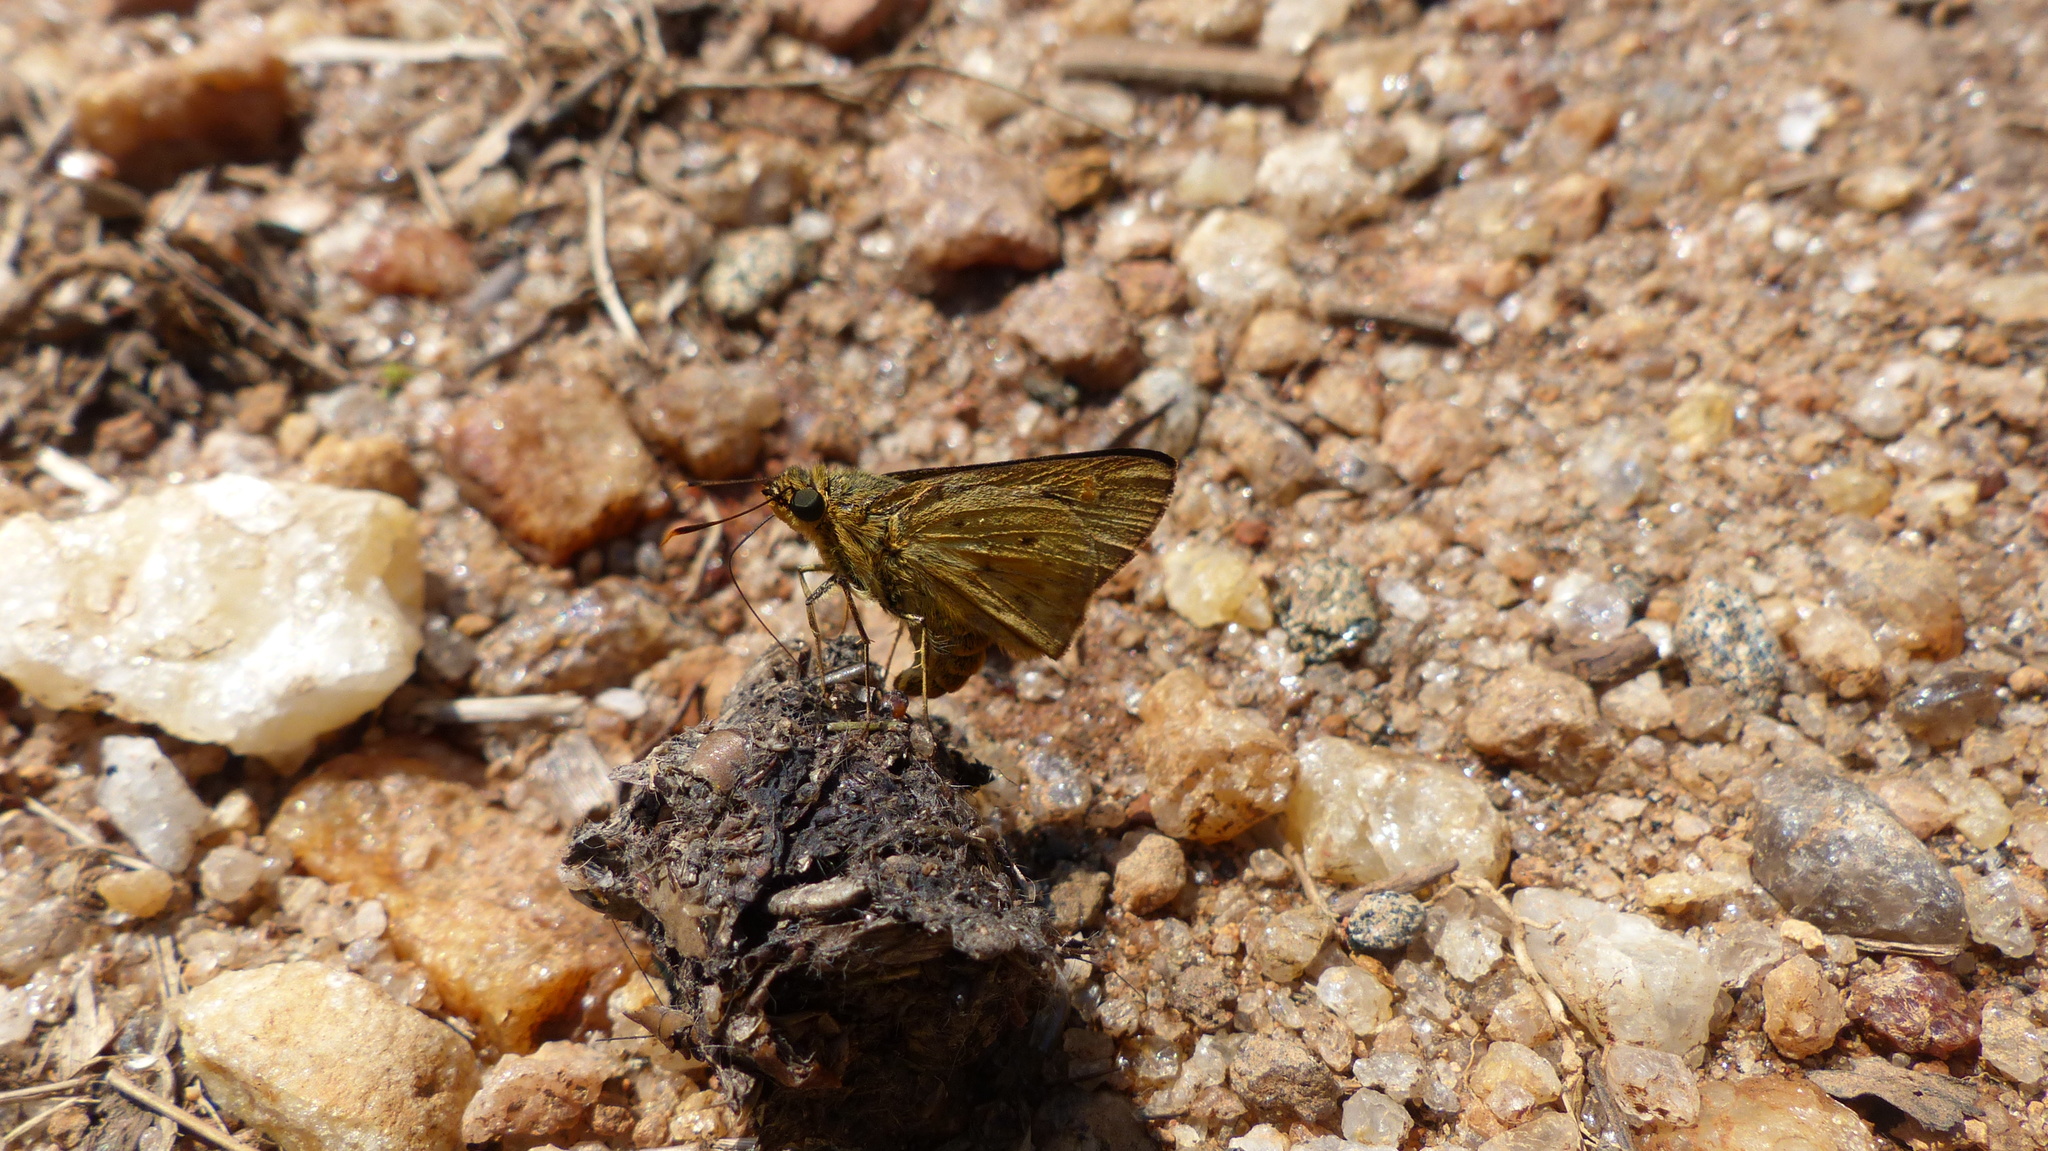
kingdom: Animalia
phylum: Arthropoda
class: Insecta
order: Lepidoptera
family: Hesperiidae
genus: Thoressa
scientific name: Thoressa honorei
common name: Madras ace
